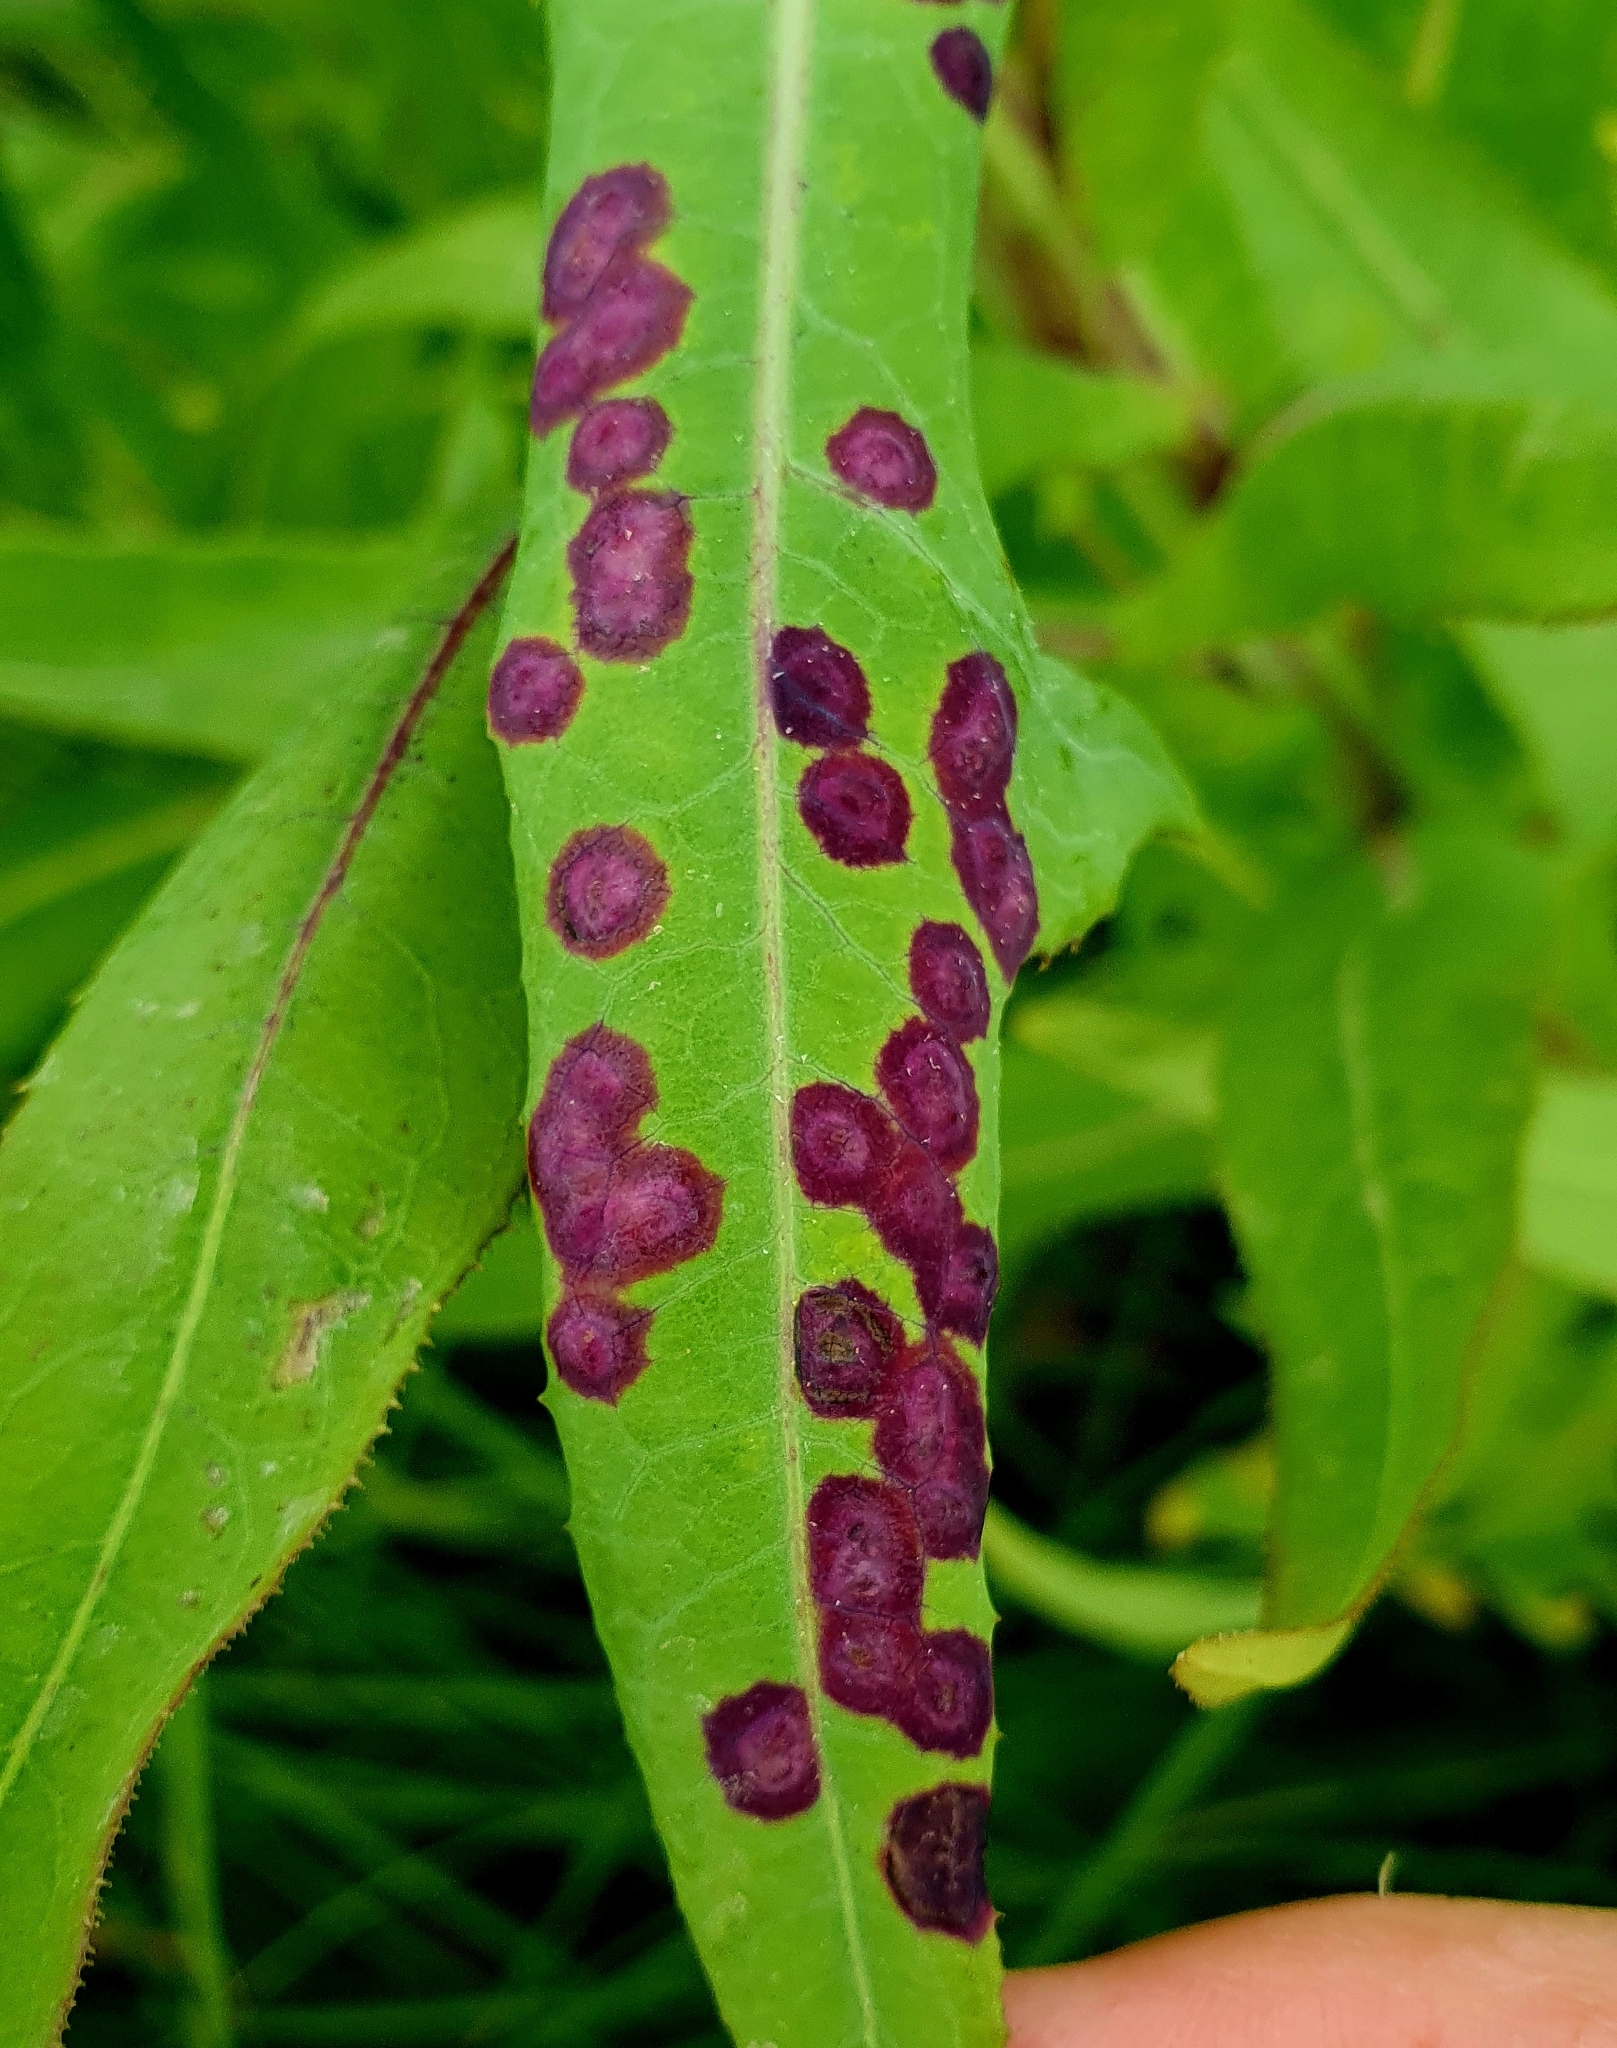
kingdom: Animalia
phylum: Arthropoda
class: Insecta
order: Diptera
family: Cecidomyiidae
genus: Cystiphora
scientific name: Cystiphora sonchi
